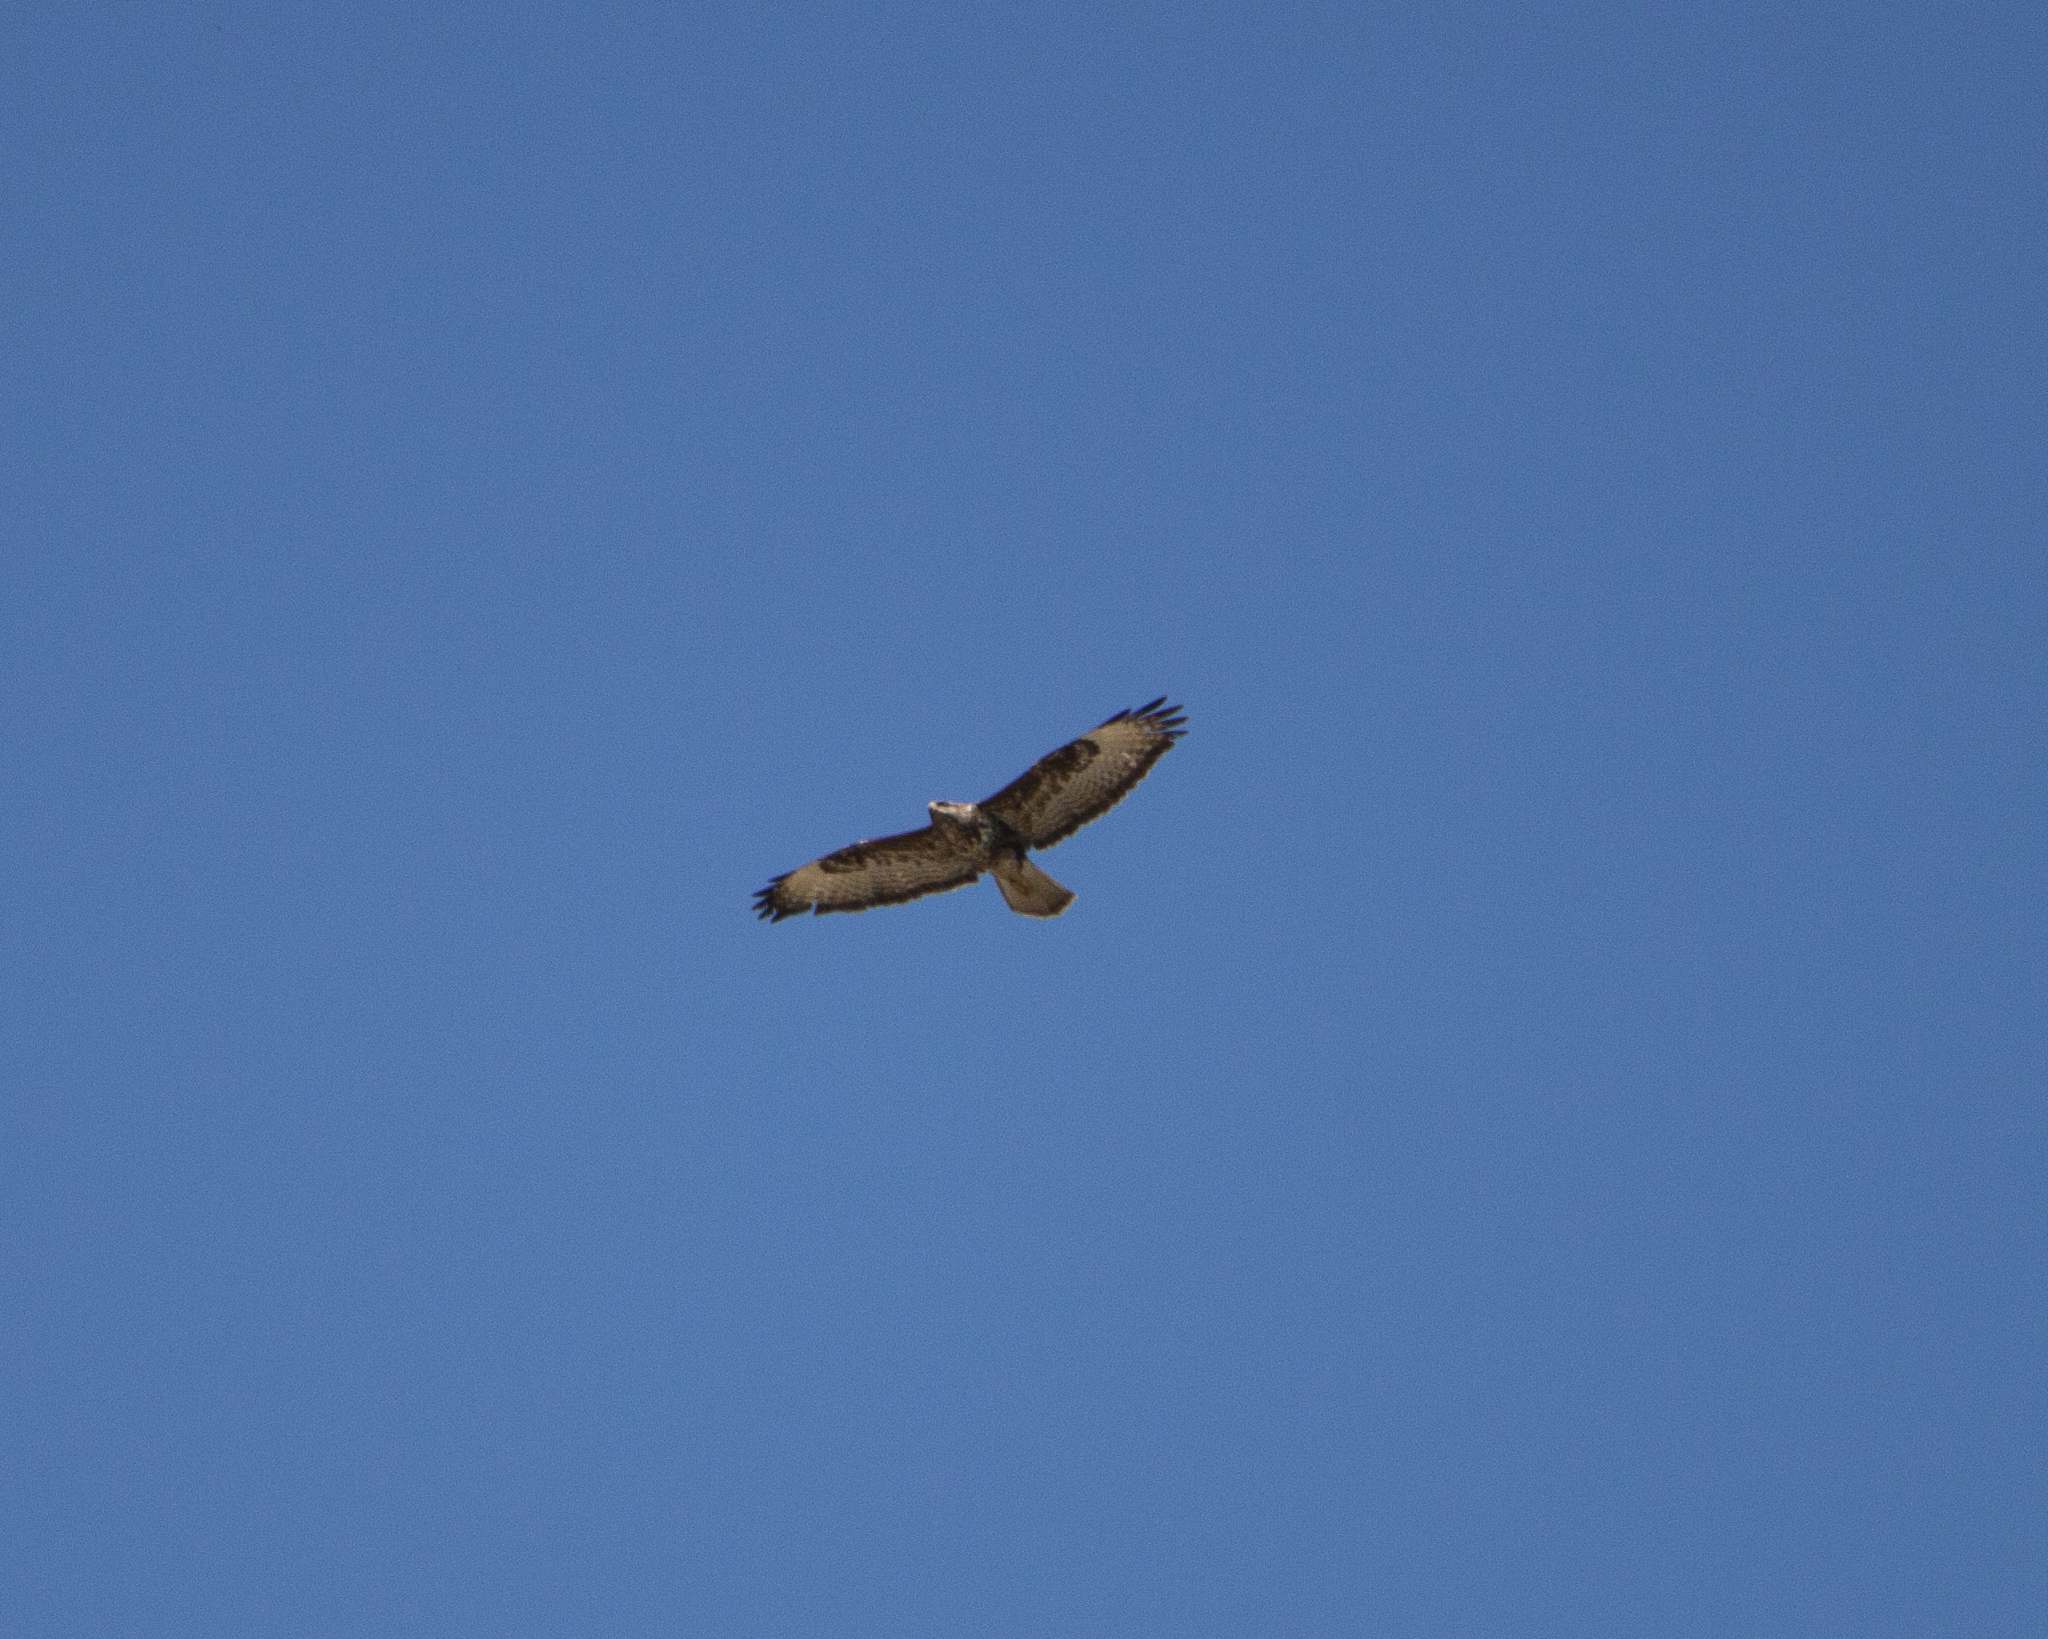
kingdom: Animalia
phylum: Chordata
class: Aves
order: Accipitriformes
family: Accipitridae
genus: Buteo
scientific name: Buteo buteo
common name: Common buzzard
